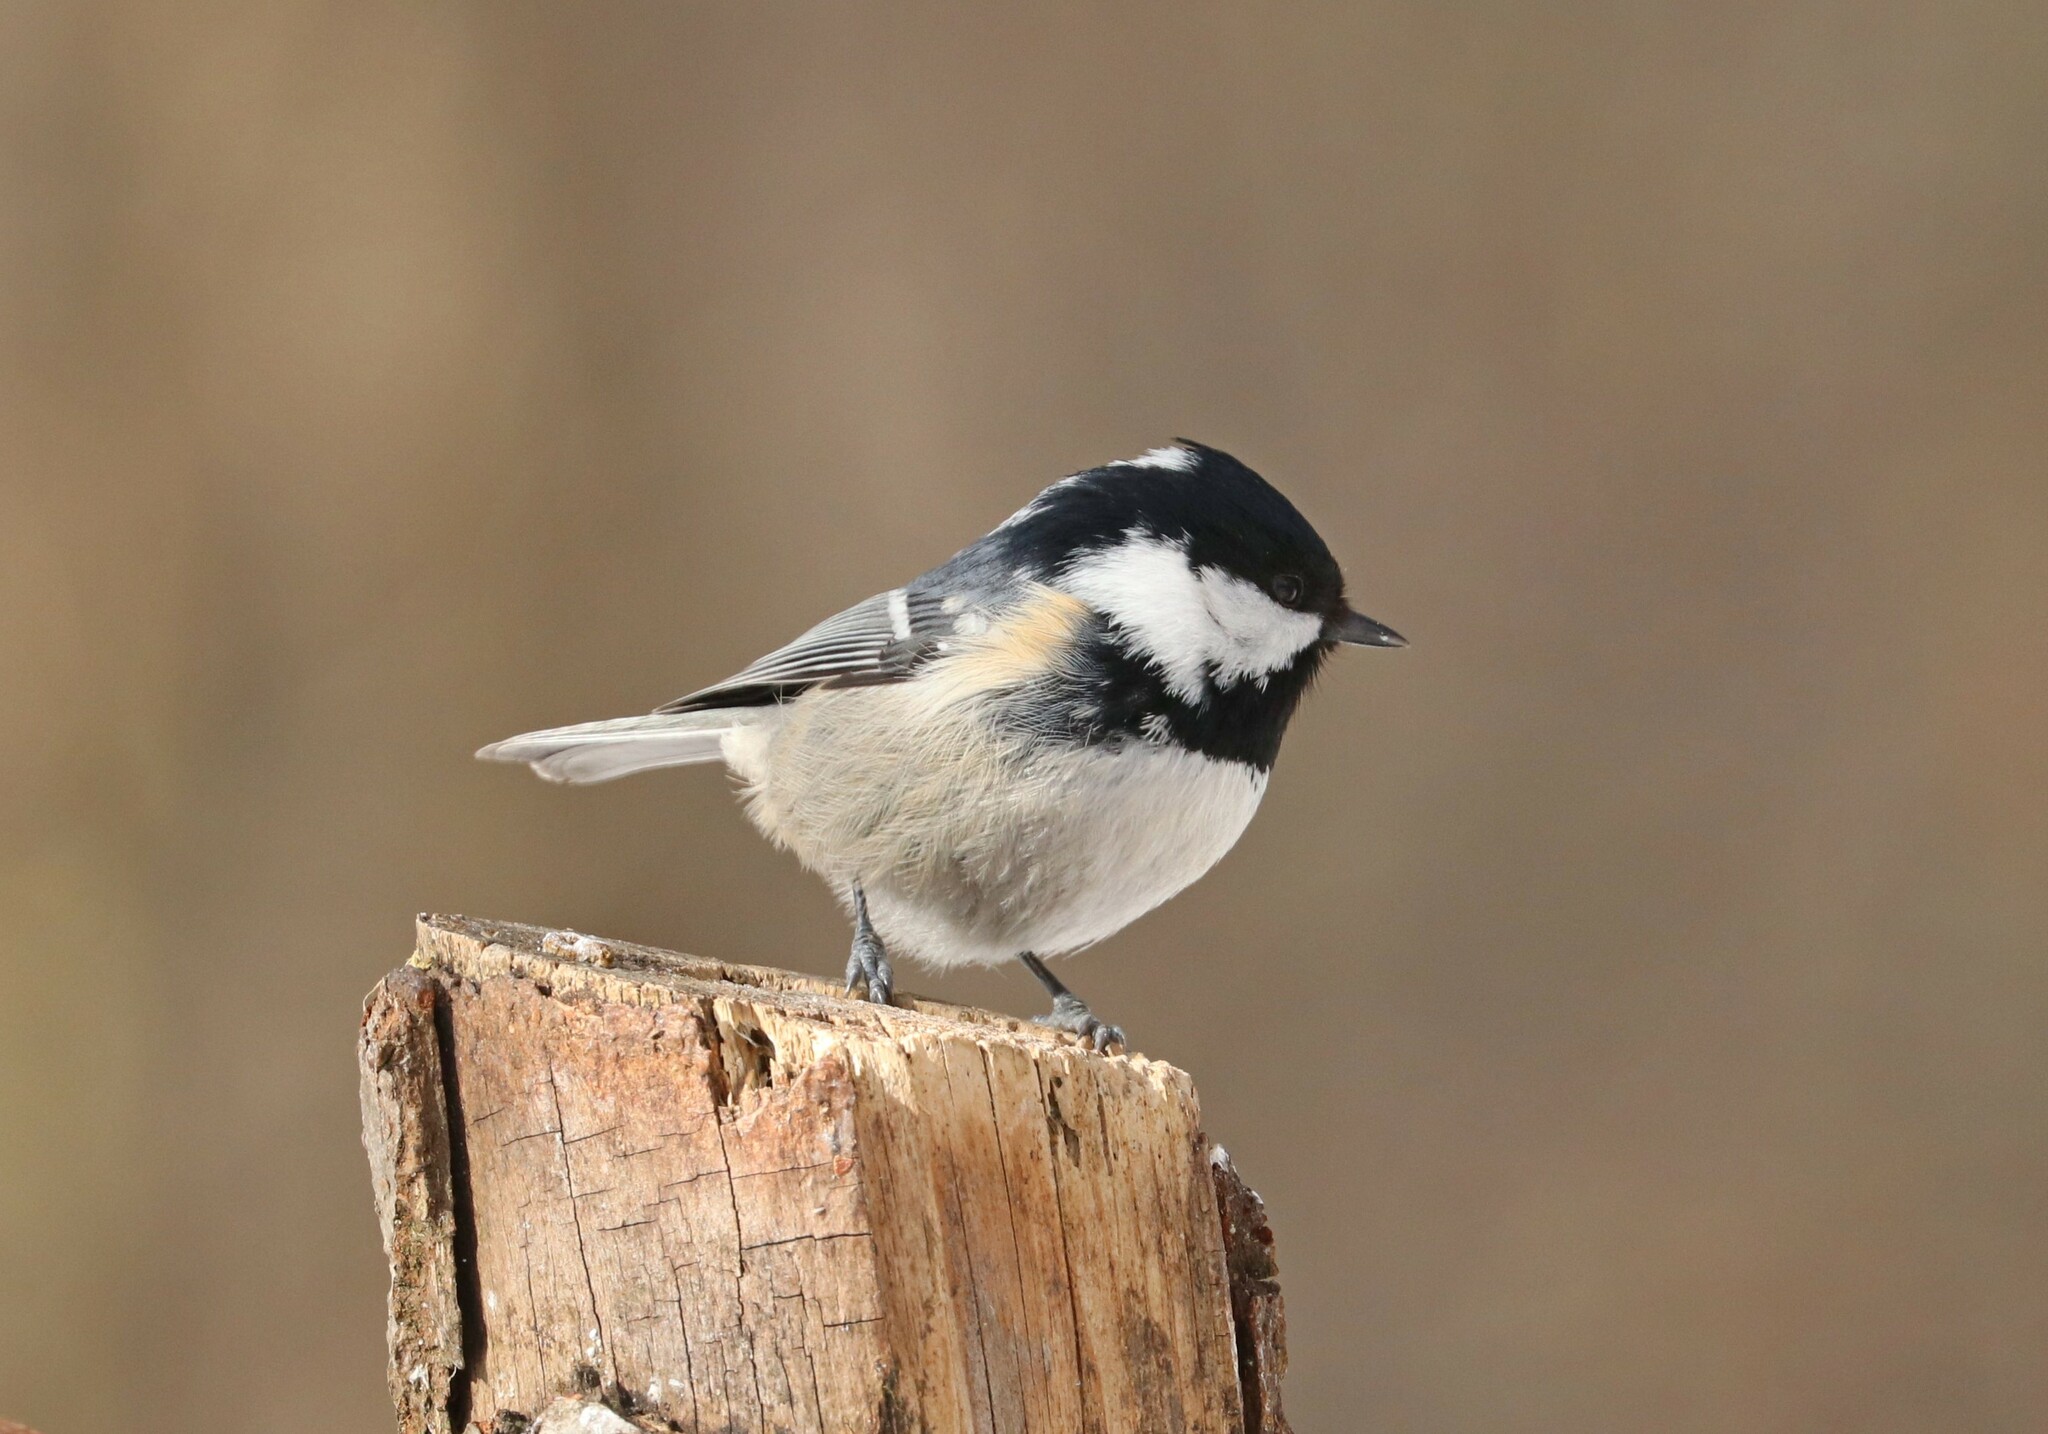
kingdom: Animalia
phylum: Chordata
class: Aves
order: Passeriformes
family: Paridae
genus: Periparus
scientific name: Periparus ater
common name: Coal tit
